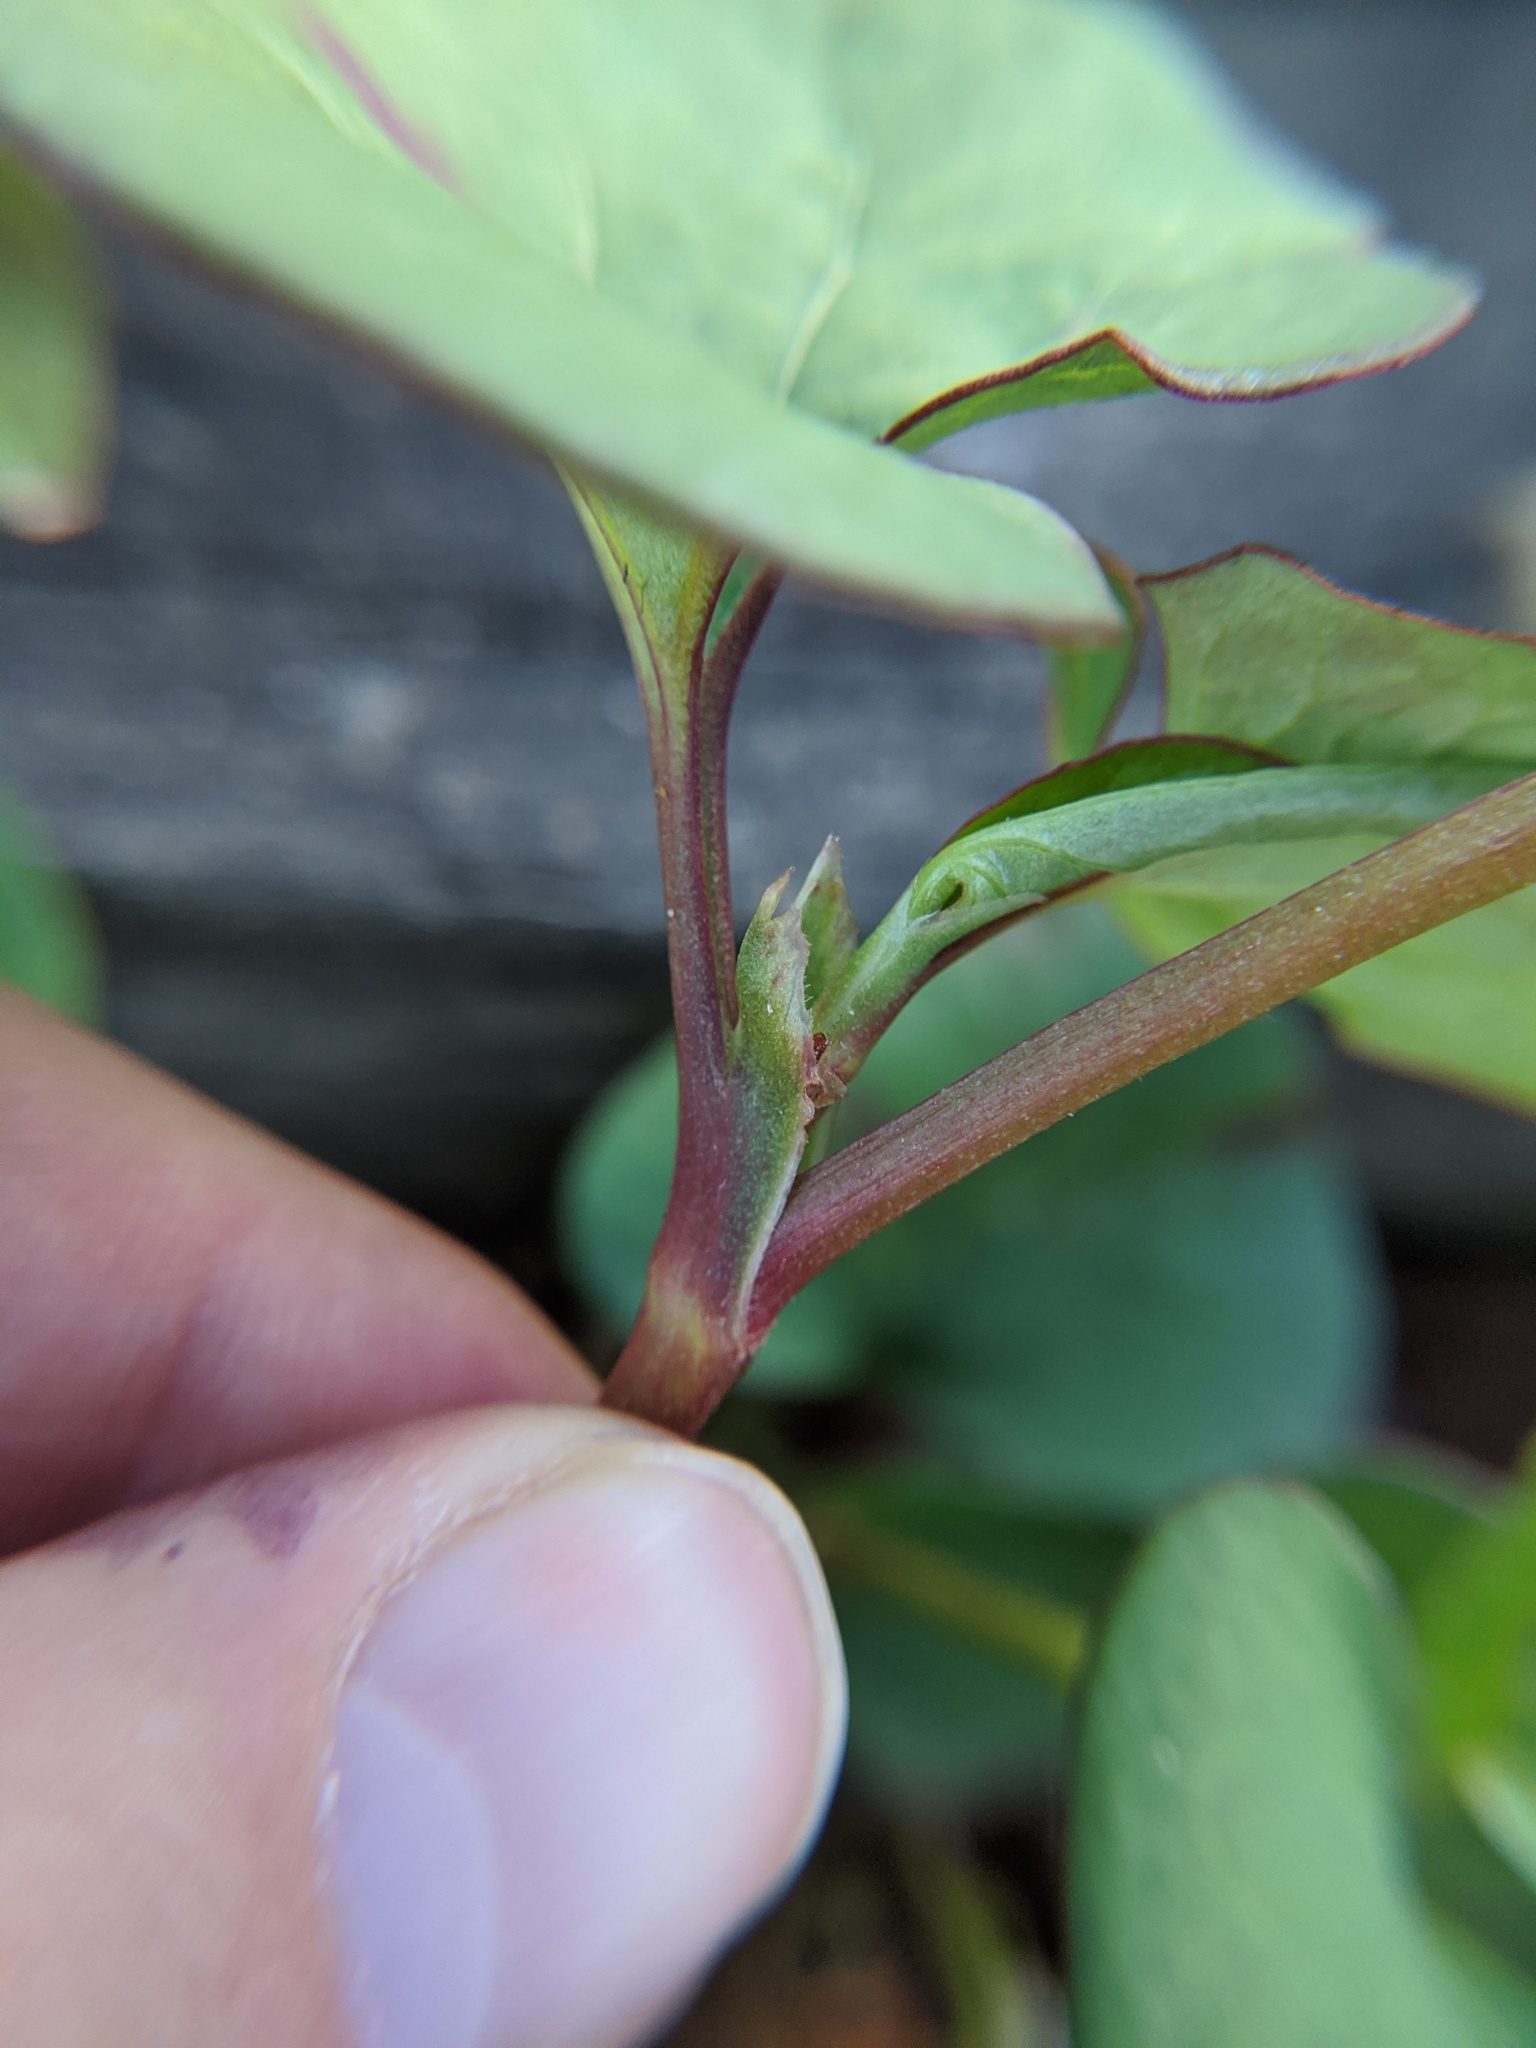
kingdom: Plantae
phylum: Tracheophyta
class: Magnoliopsida
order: Piperales
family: Saururaceae
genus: Houttuynia
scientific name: Houttuynia cordata
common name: Chameleon
